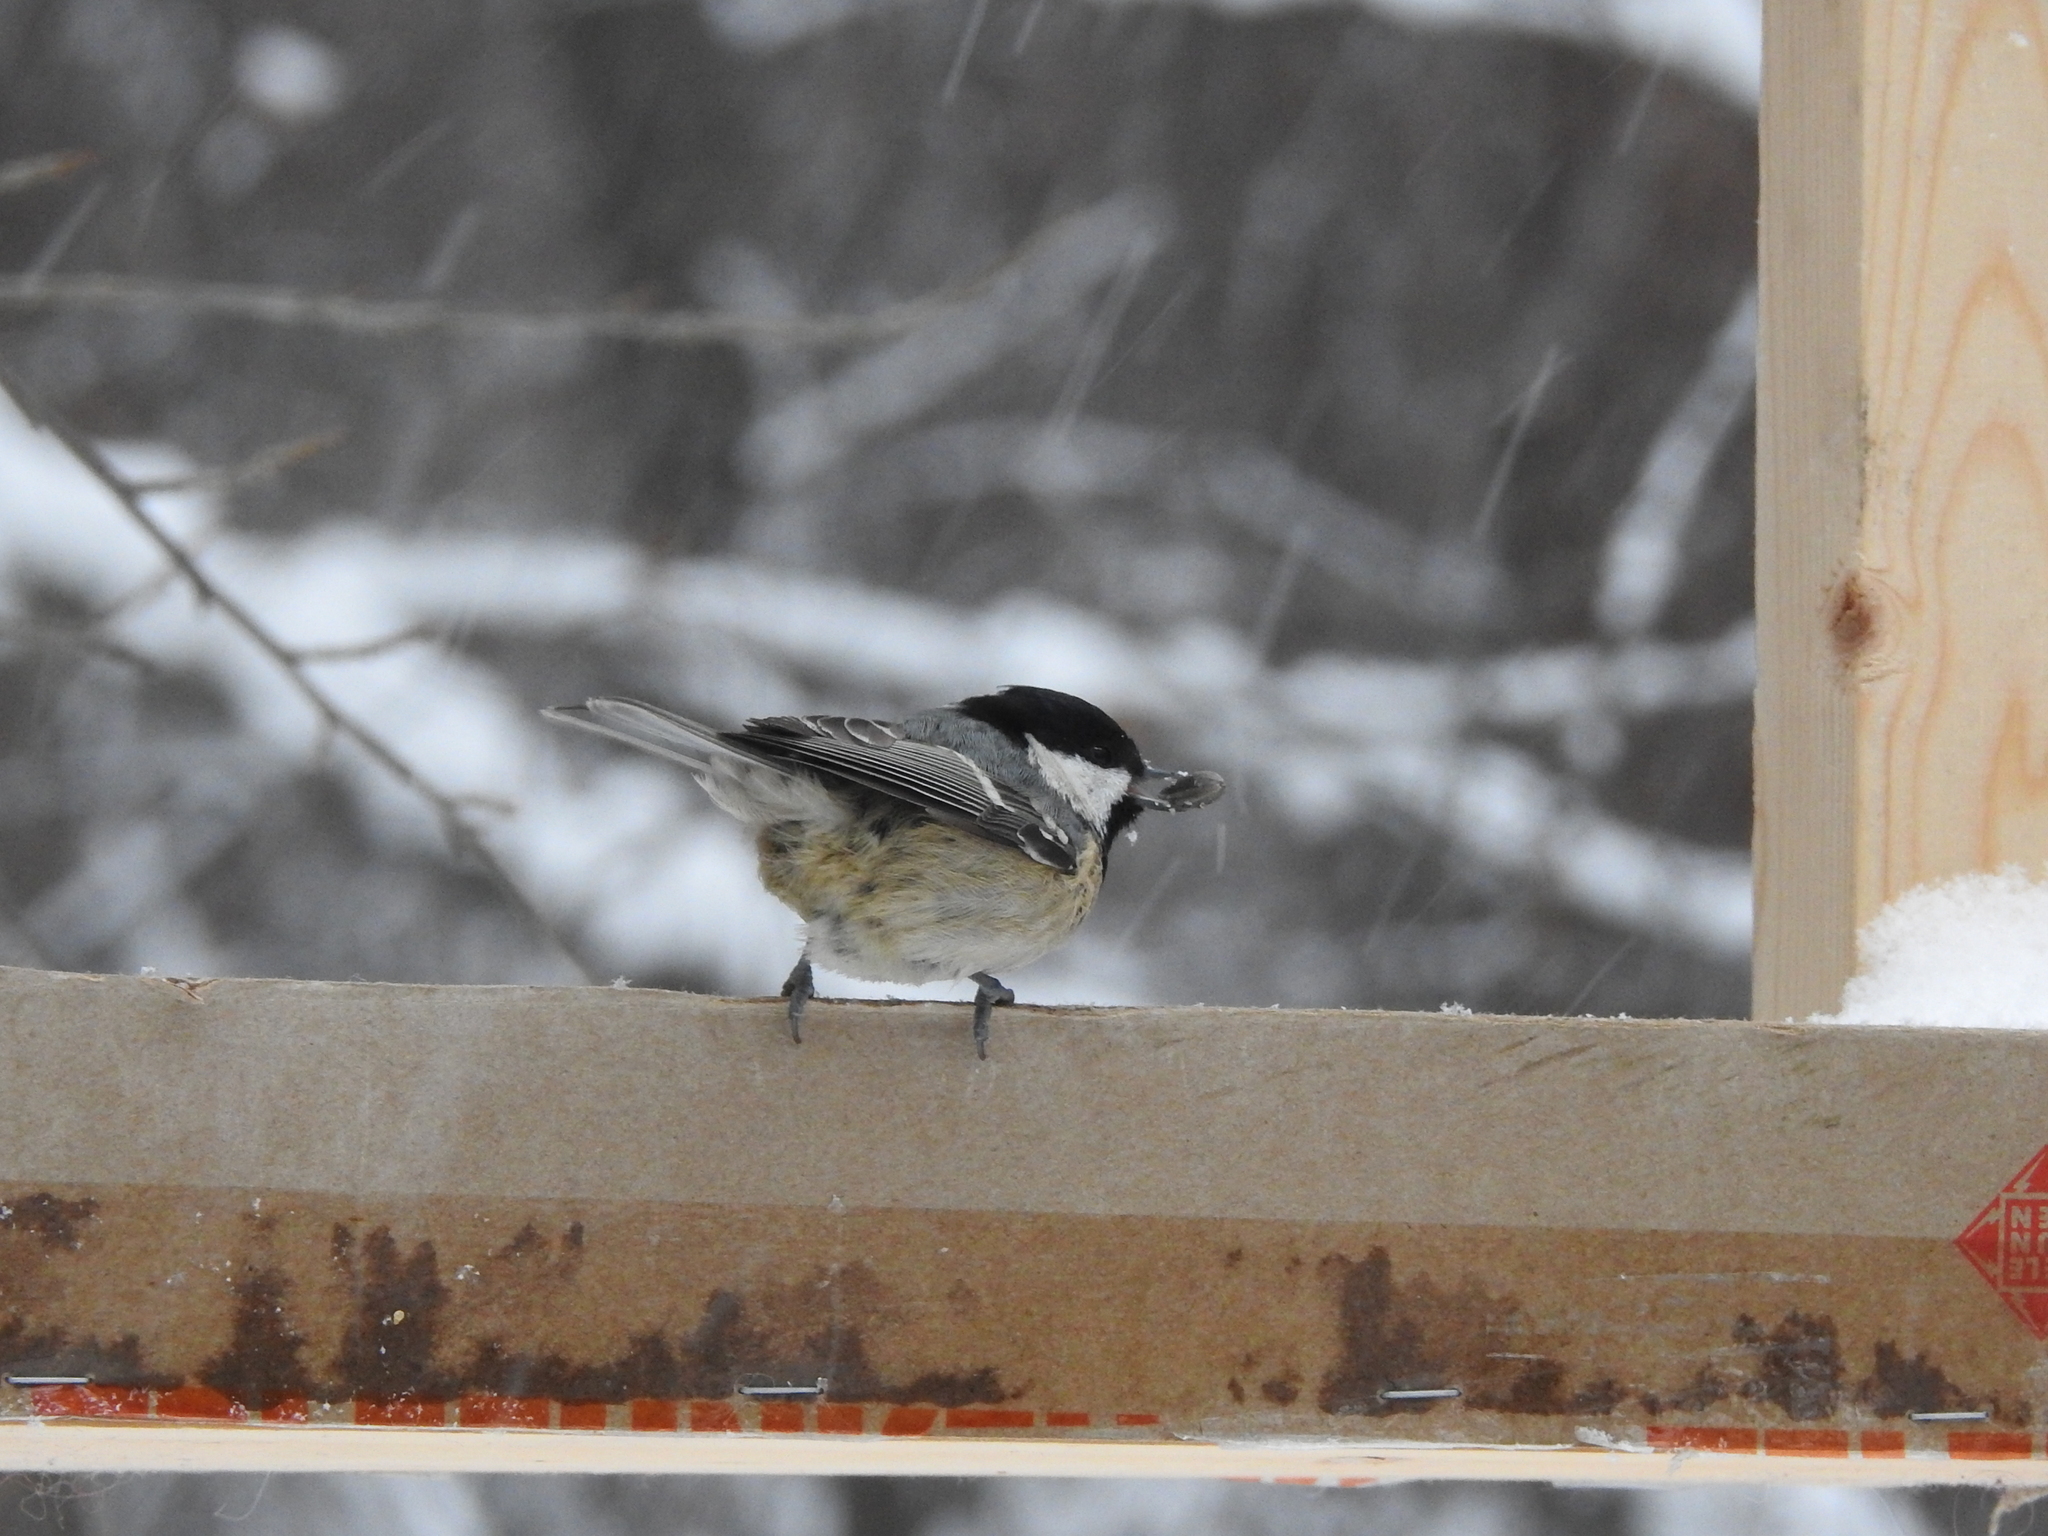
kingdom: Animalia
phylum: Chordata
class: Aves
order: Passeriformes
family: Paridae
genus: Periparus
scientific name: Periparus ater
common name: Coal tit
